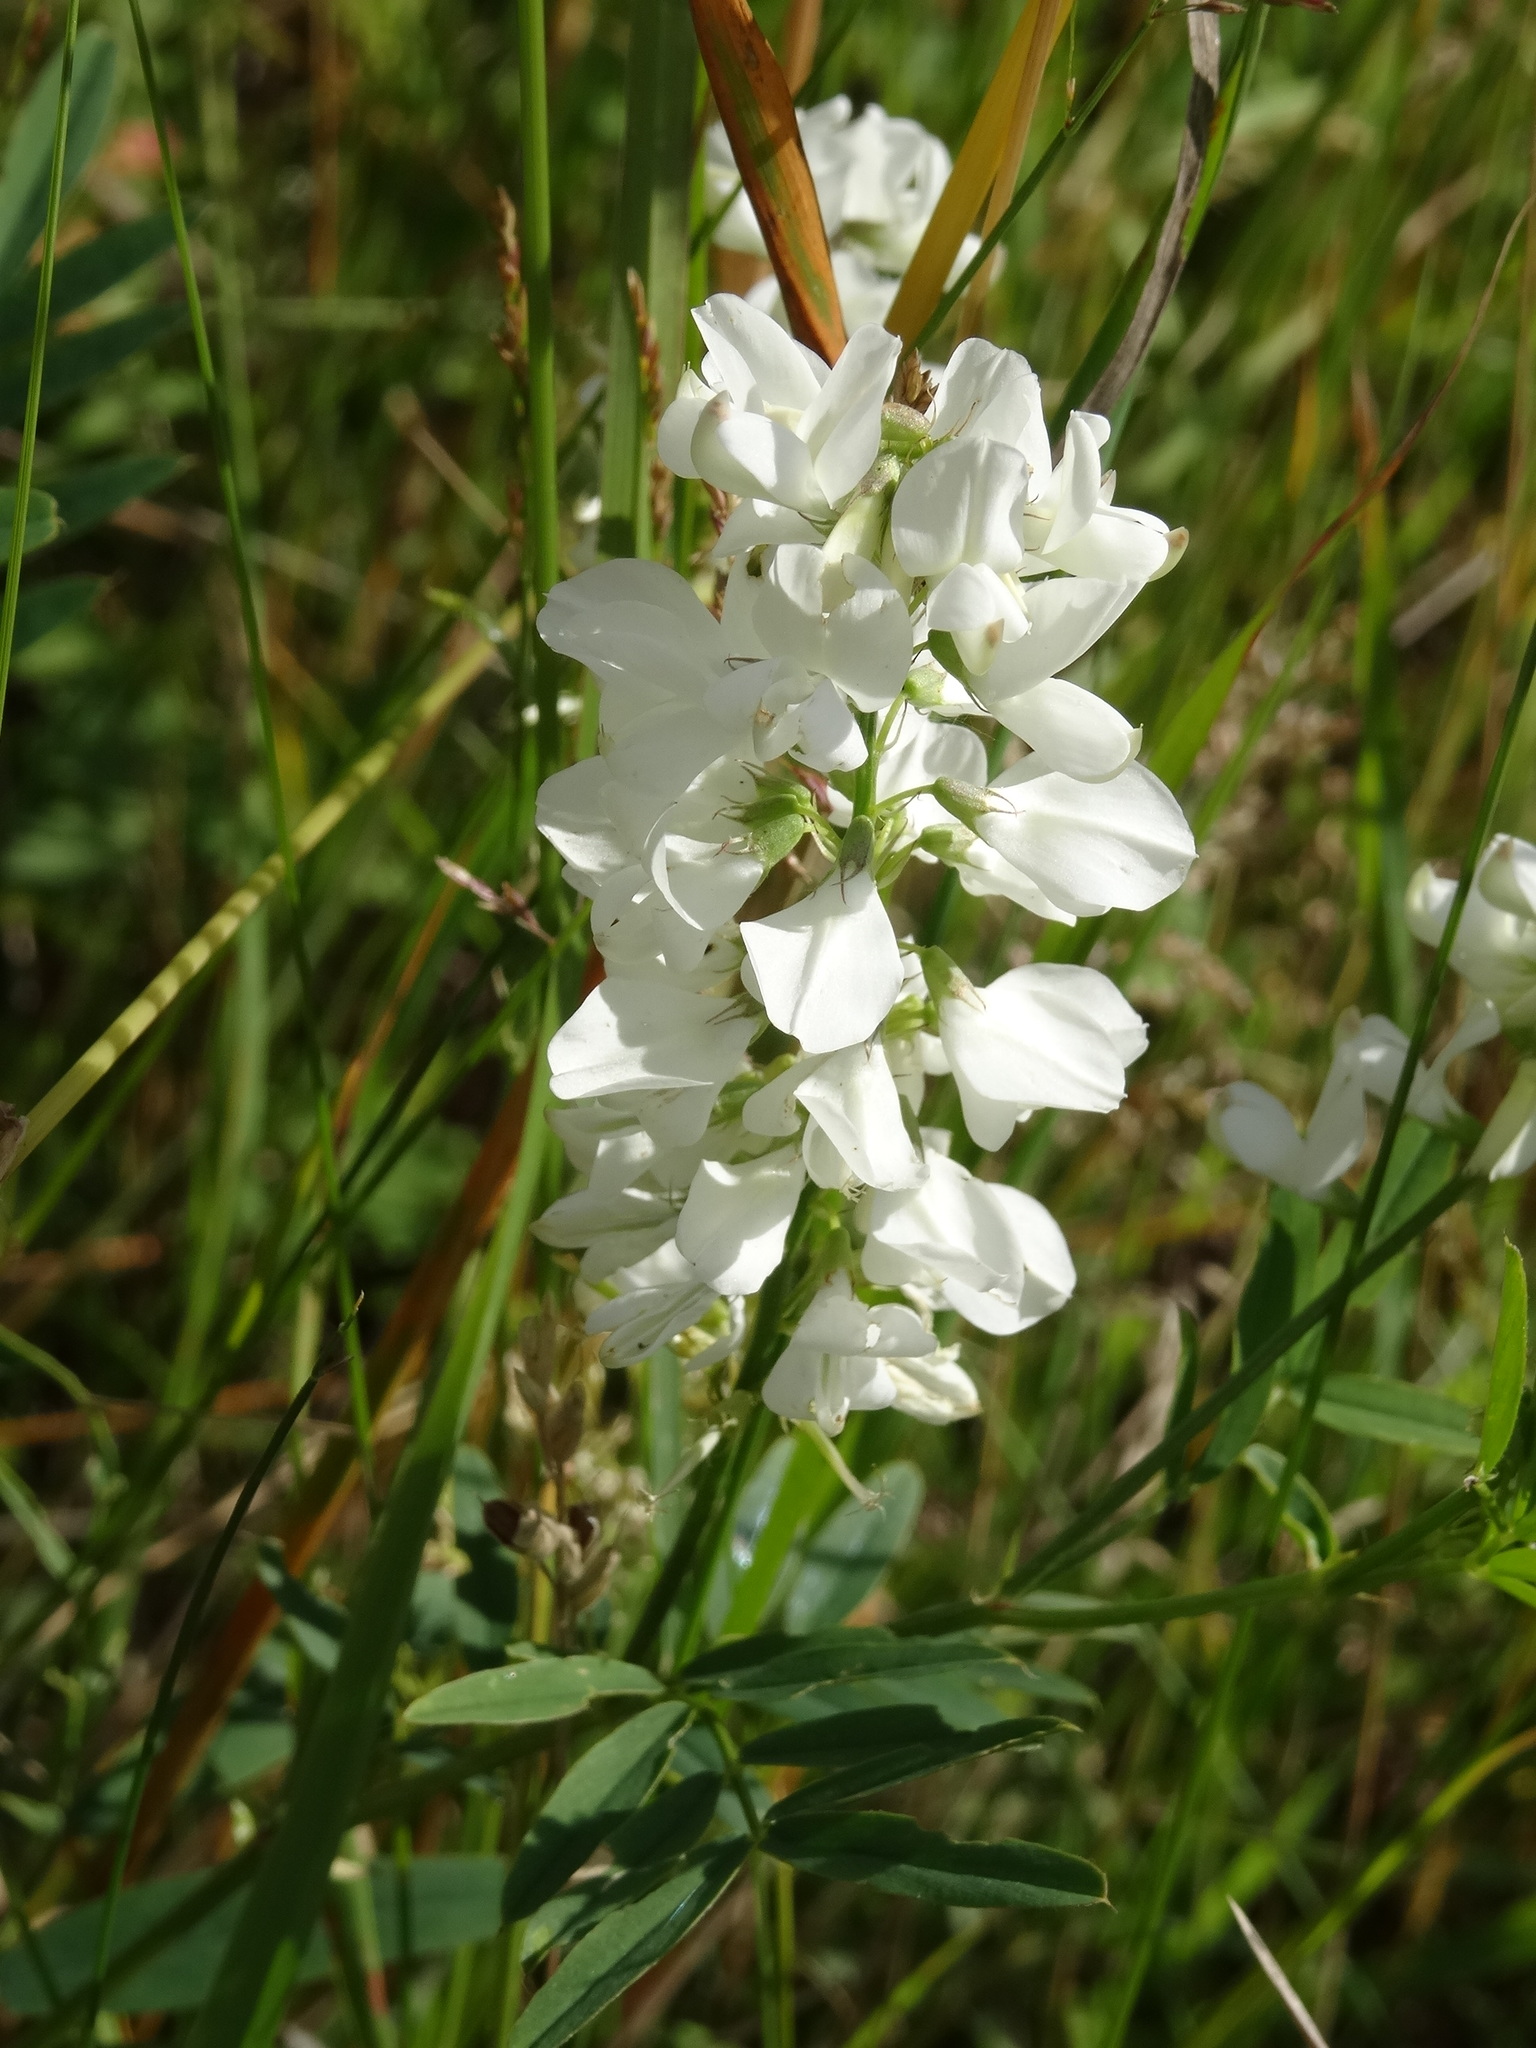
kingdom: Plantae
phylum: Tracheophyta
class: Magnoliopsida
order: Fabales
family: Fabaceae
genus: Galega
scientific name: Galega officinalis
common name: Goat's-rue
